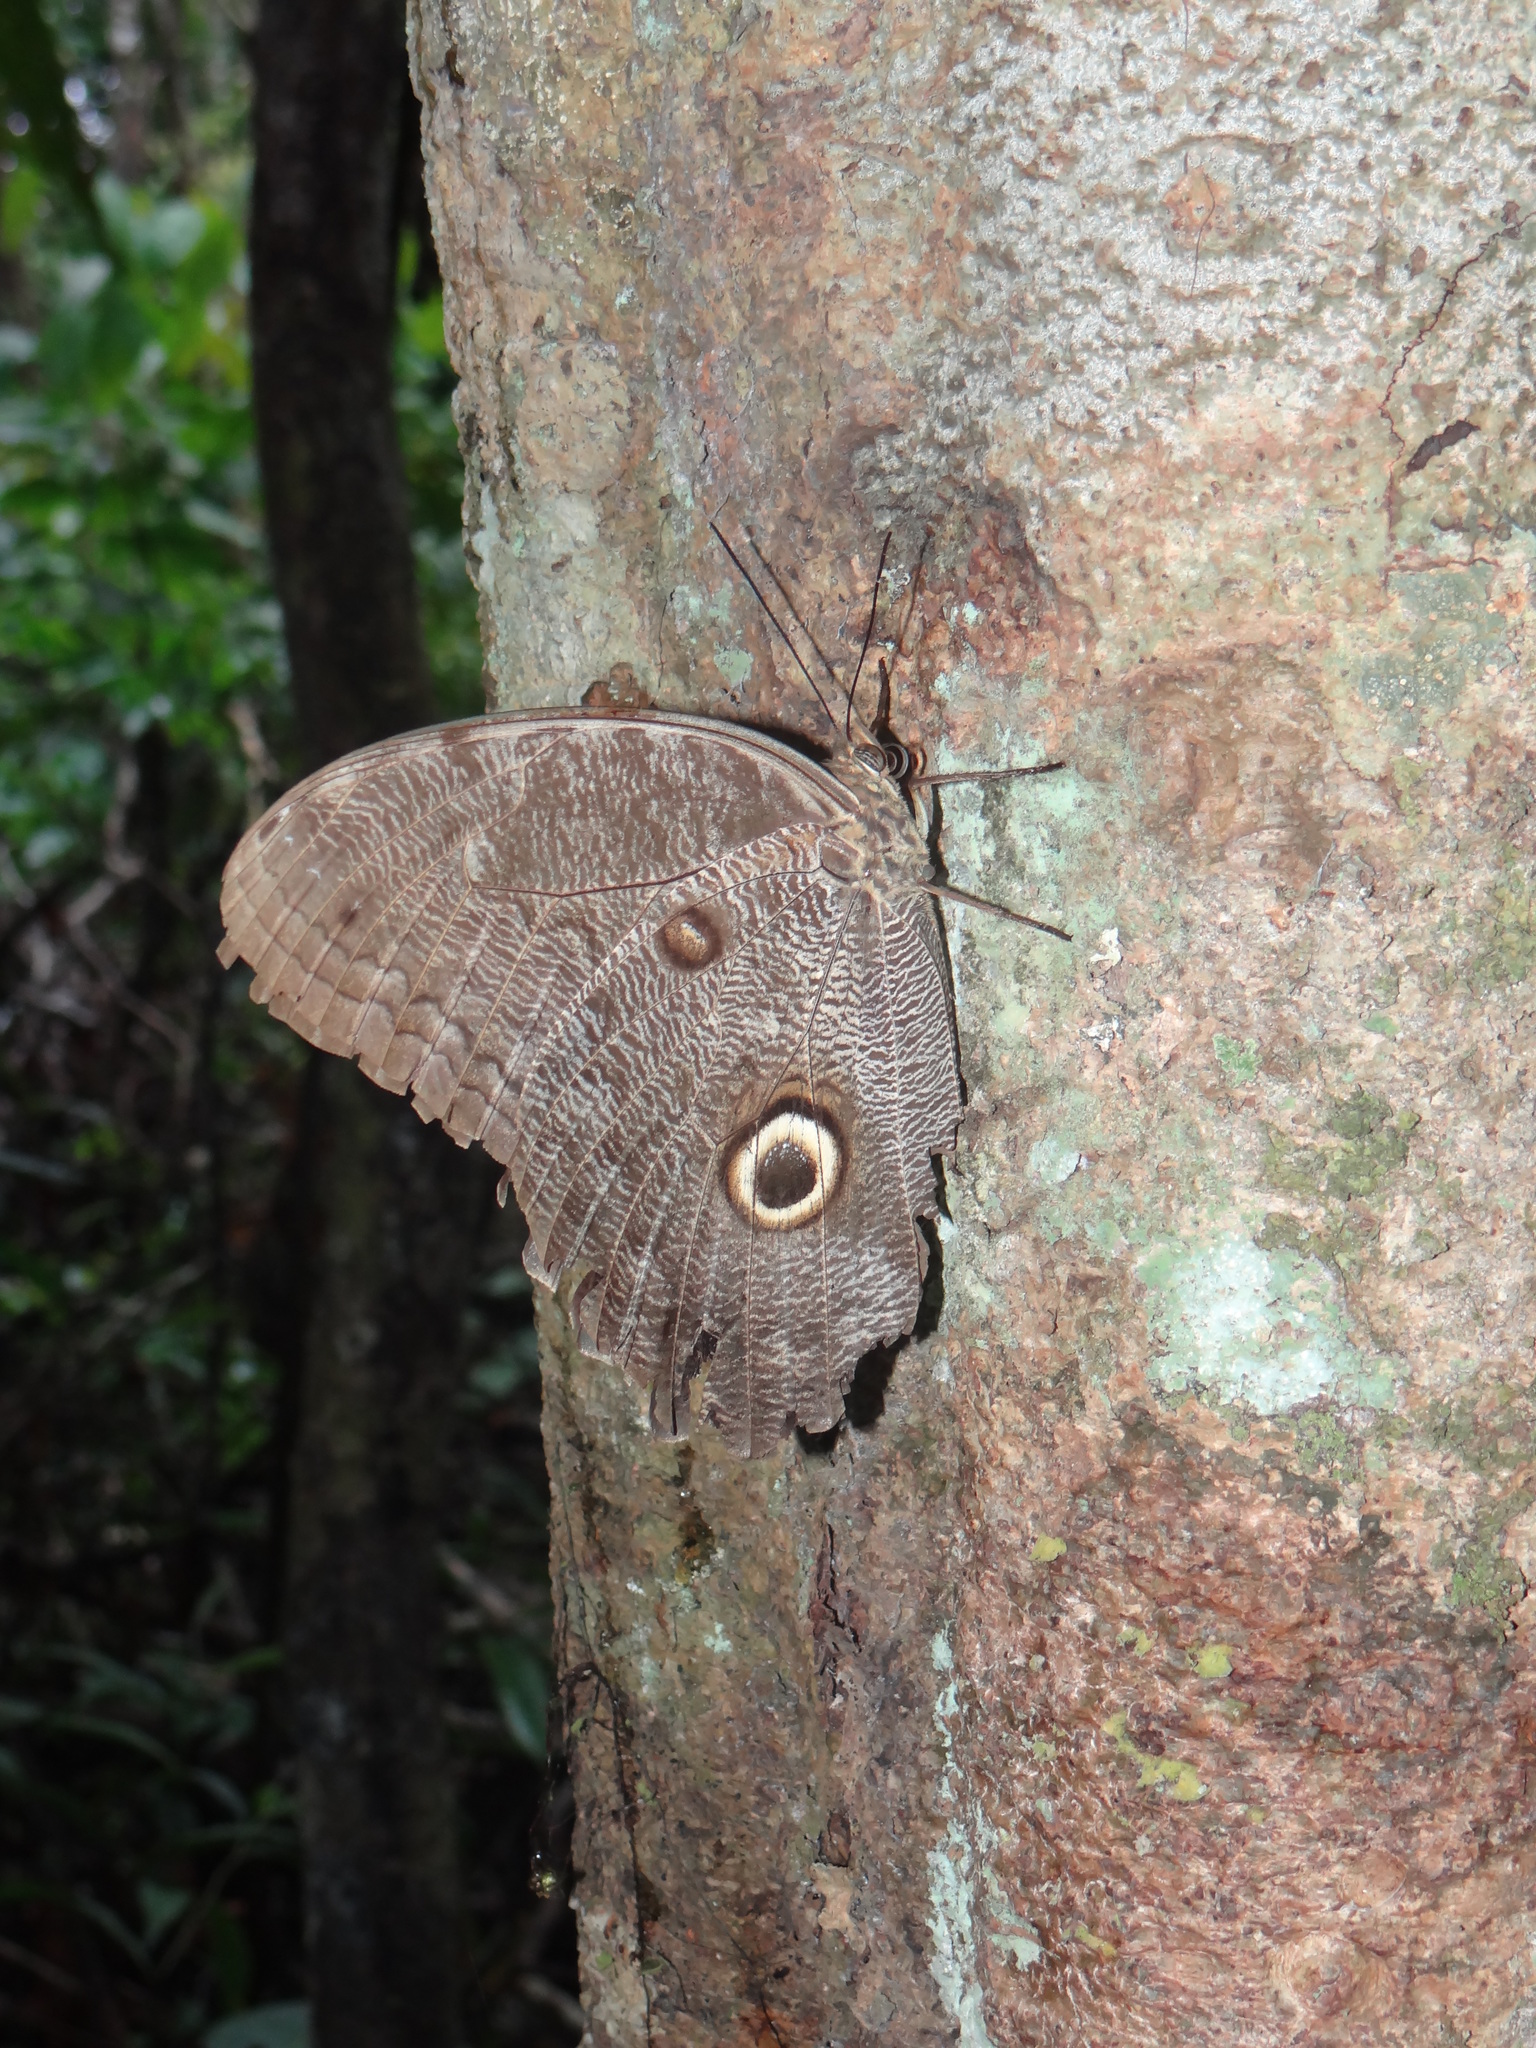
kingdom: Animalia
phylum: Arthropoda
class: Insecta
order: Lepidoptera
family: Nymphalidae
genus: Caligo
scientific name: Caligo eurilochus
